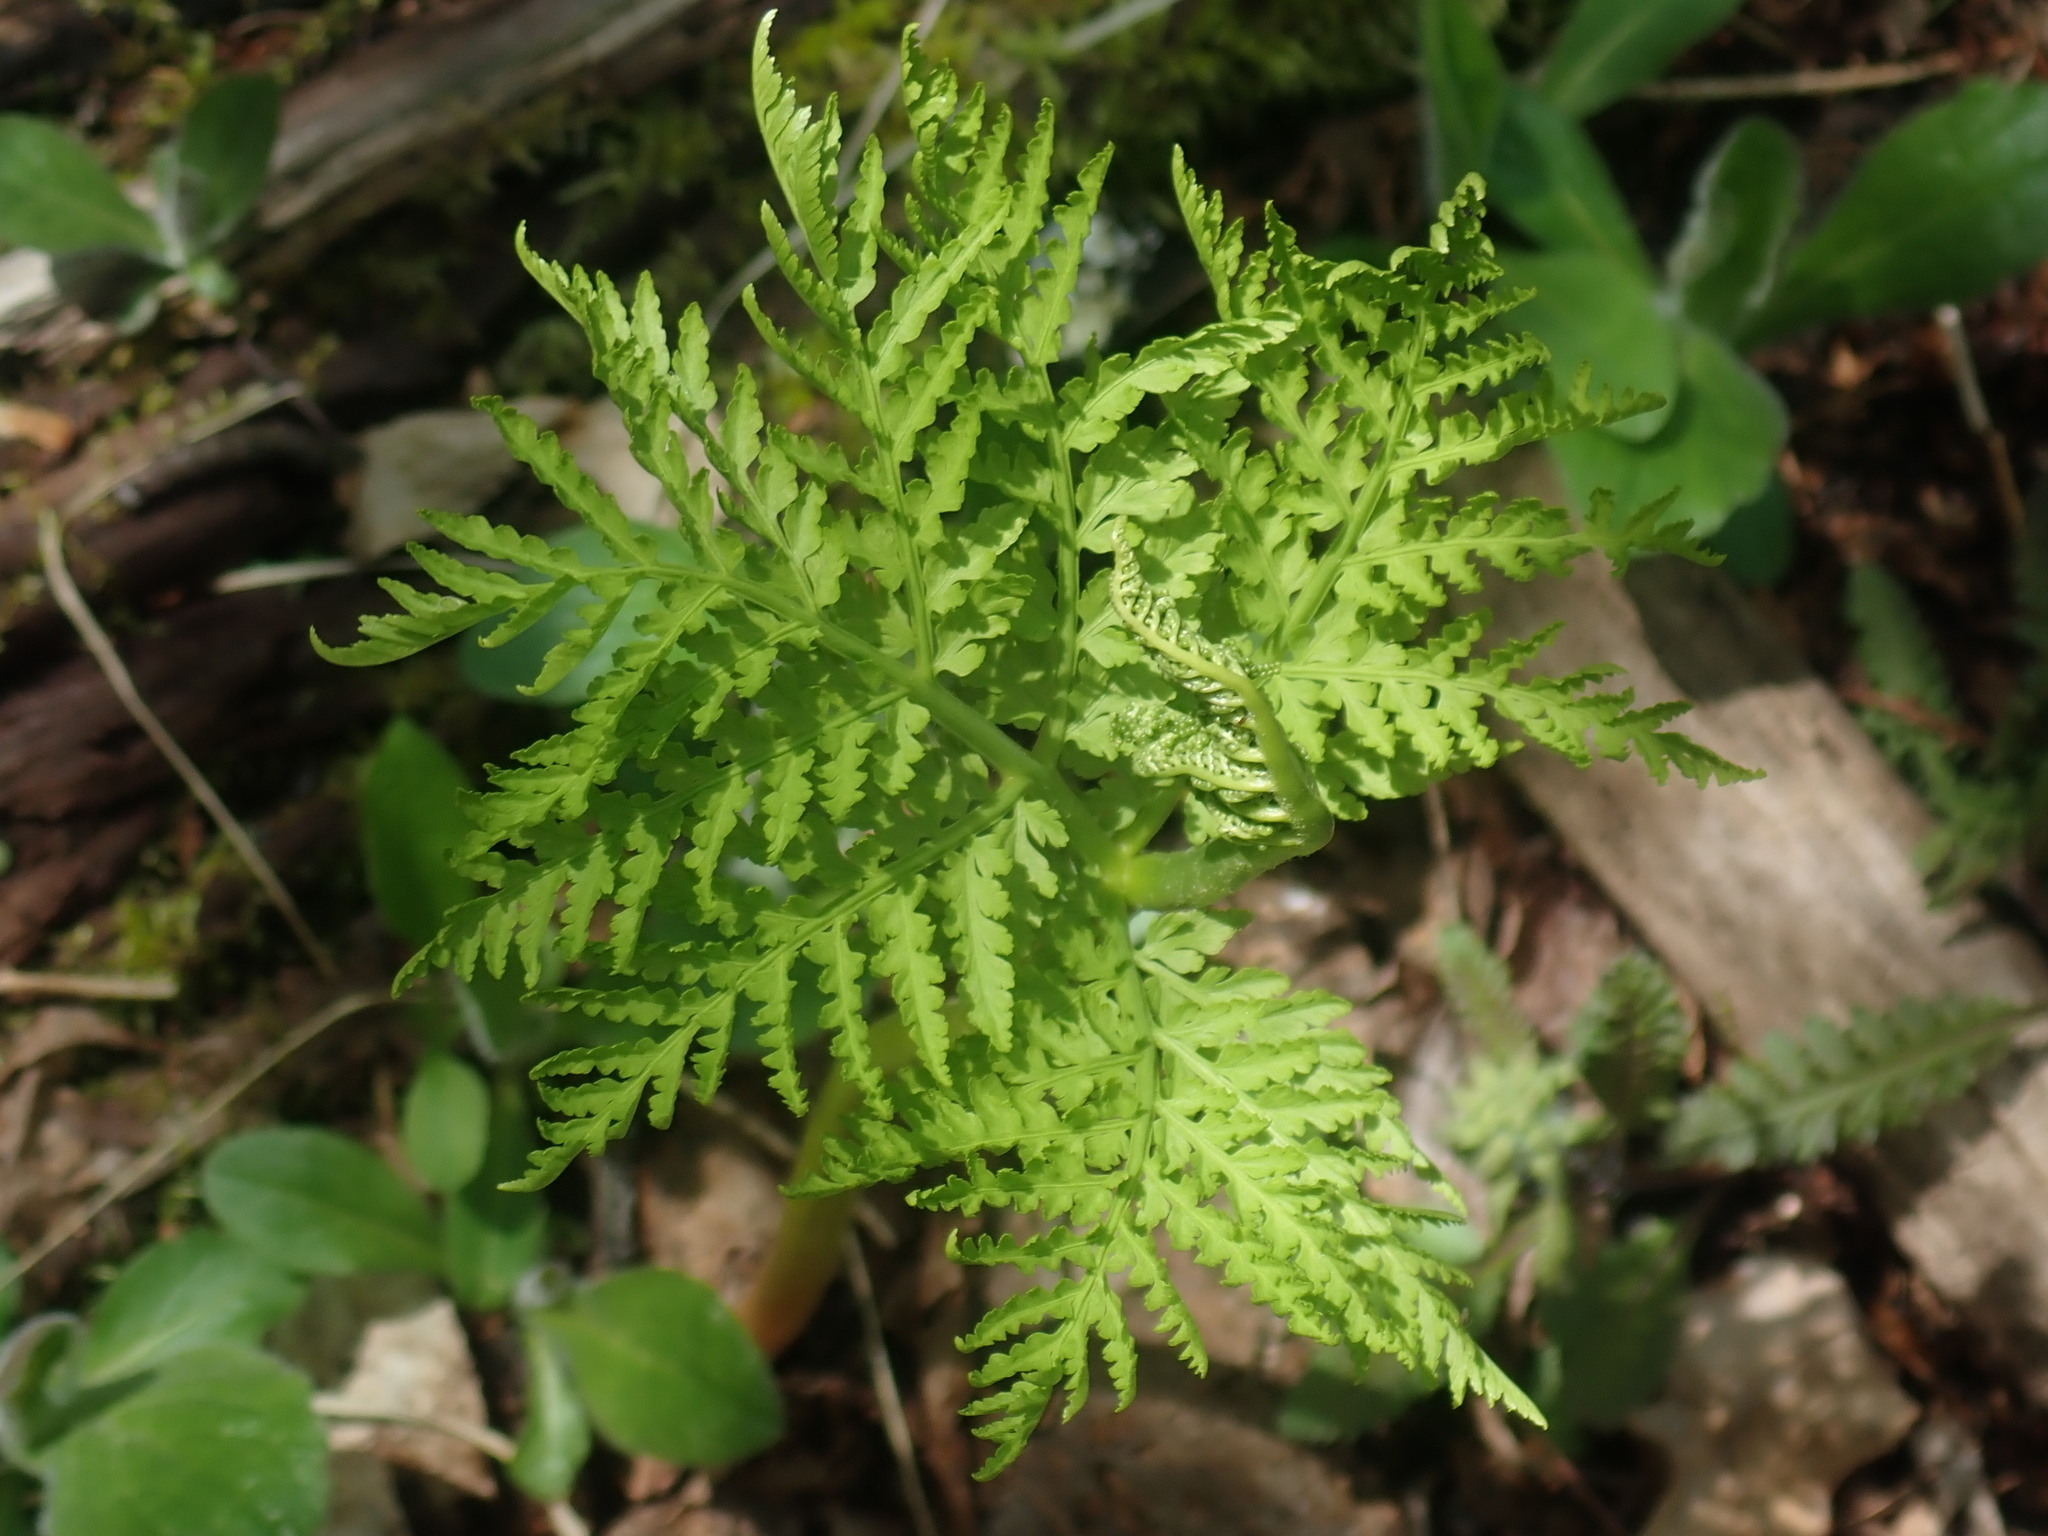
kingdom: Plantae
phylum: Tracheophyta
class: Polypodiopsida
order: Ophioglossales
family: Ophioglossaceae
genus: Botrypus
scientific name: Botrypus virginianus
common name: Common grapefern
